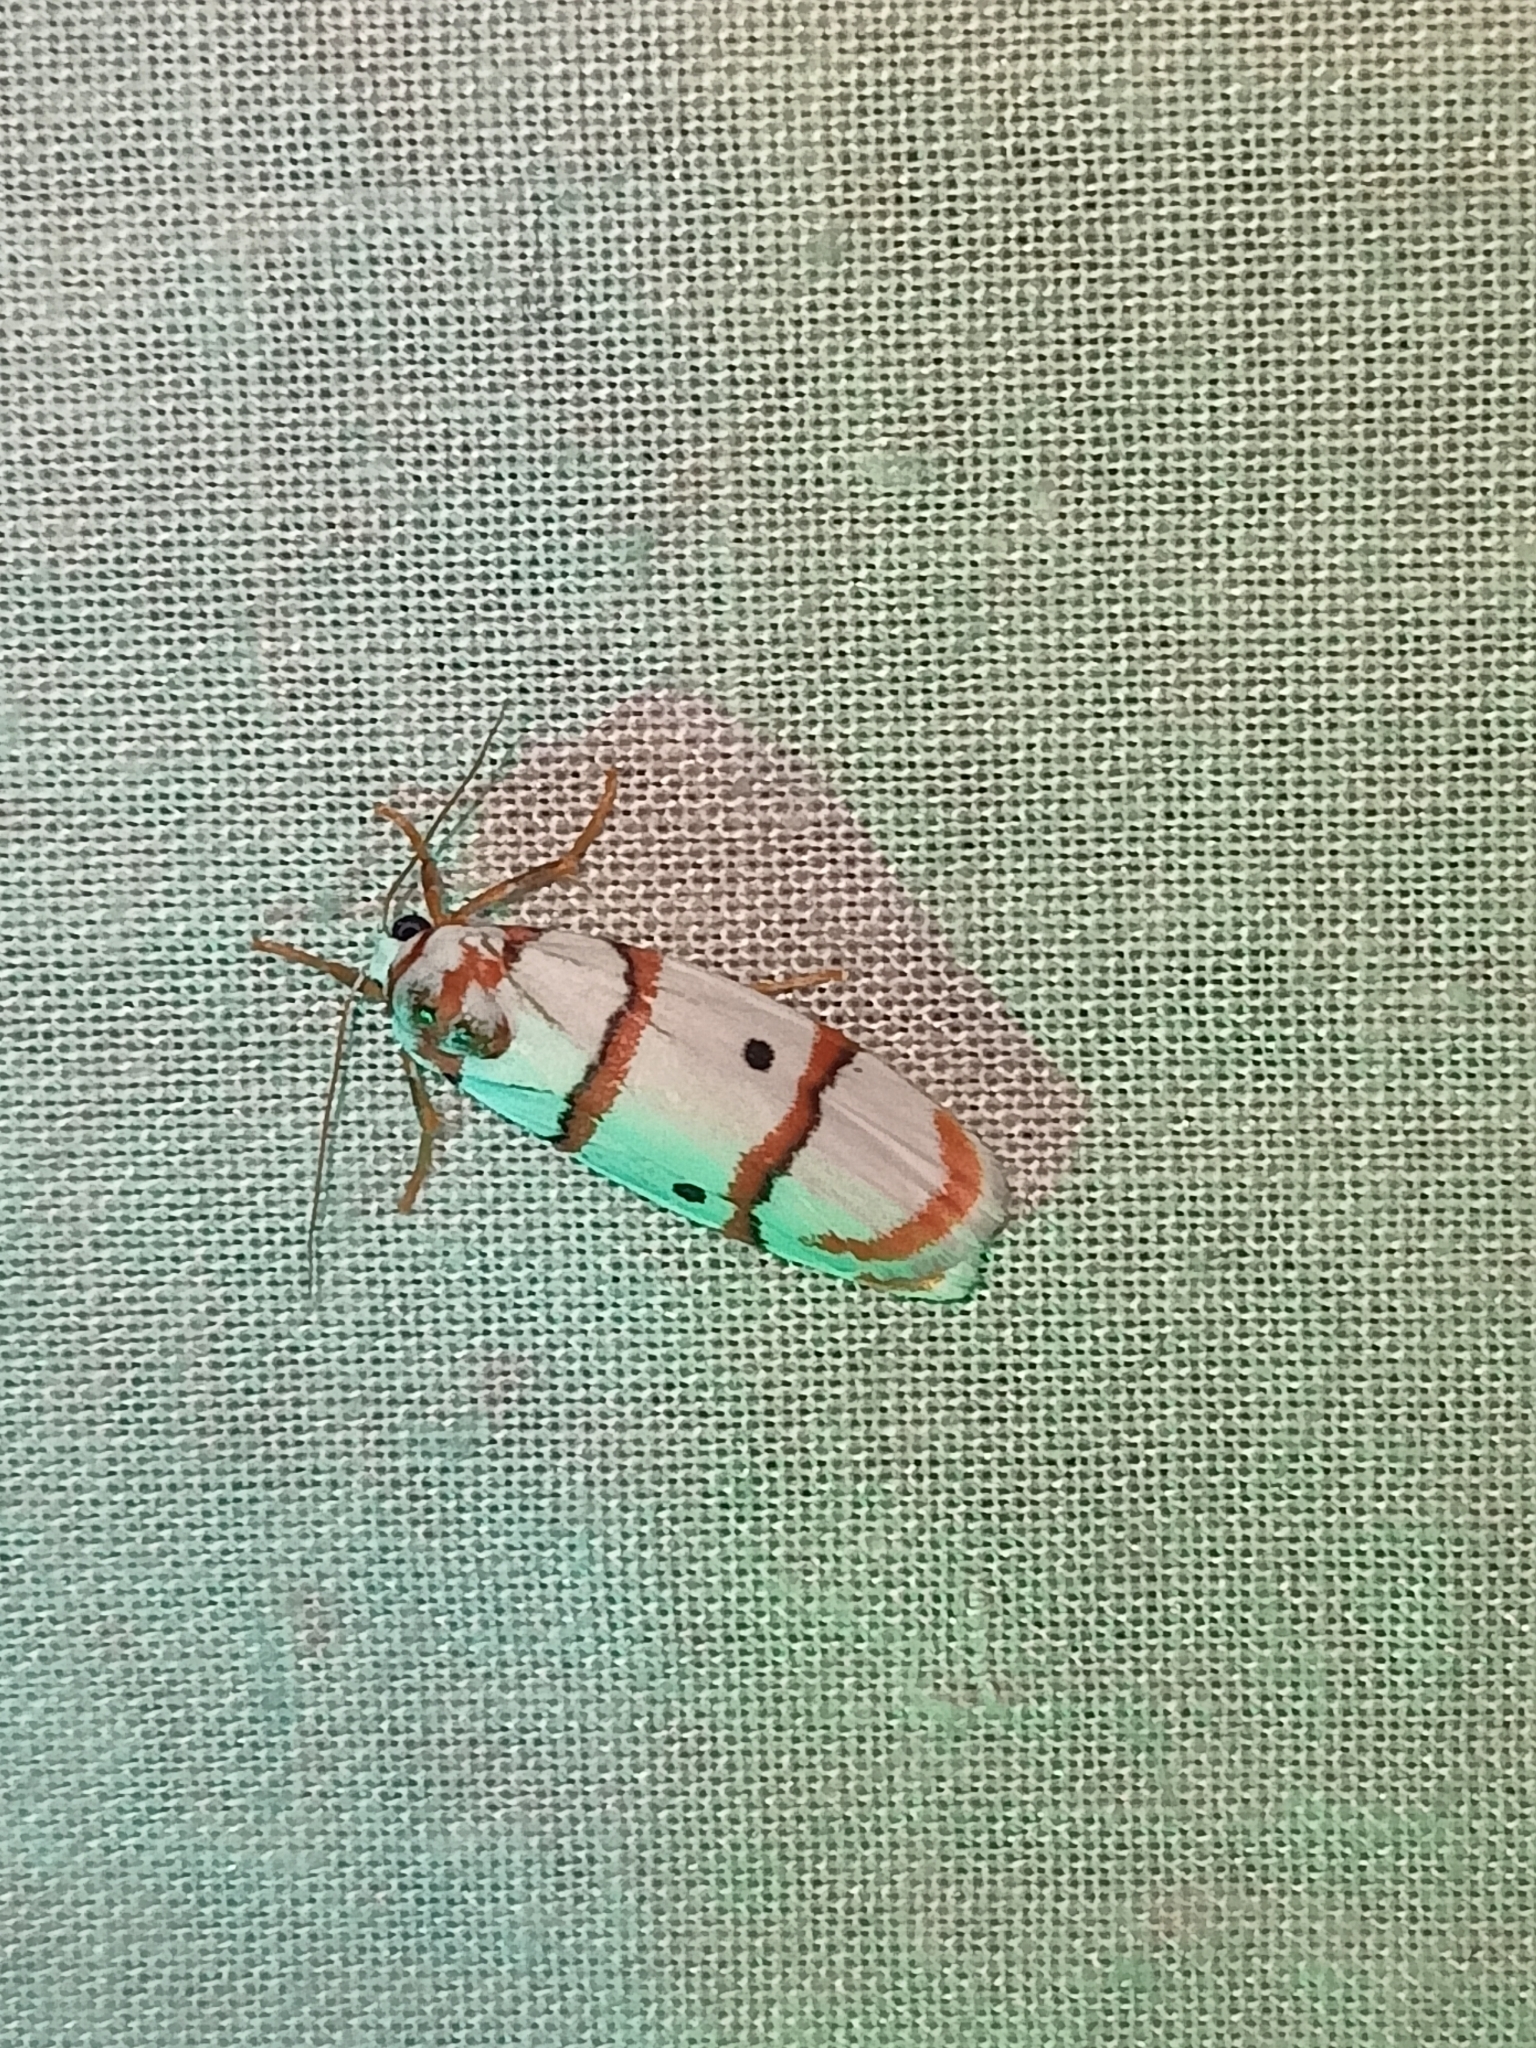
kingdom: Animalia
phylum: Arthropoda
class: Insecta
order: Lepidoptera
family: Erebidae
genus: Cyana
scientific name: Cyana peregrina
